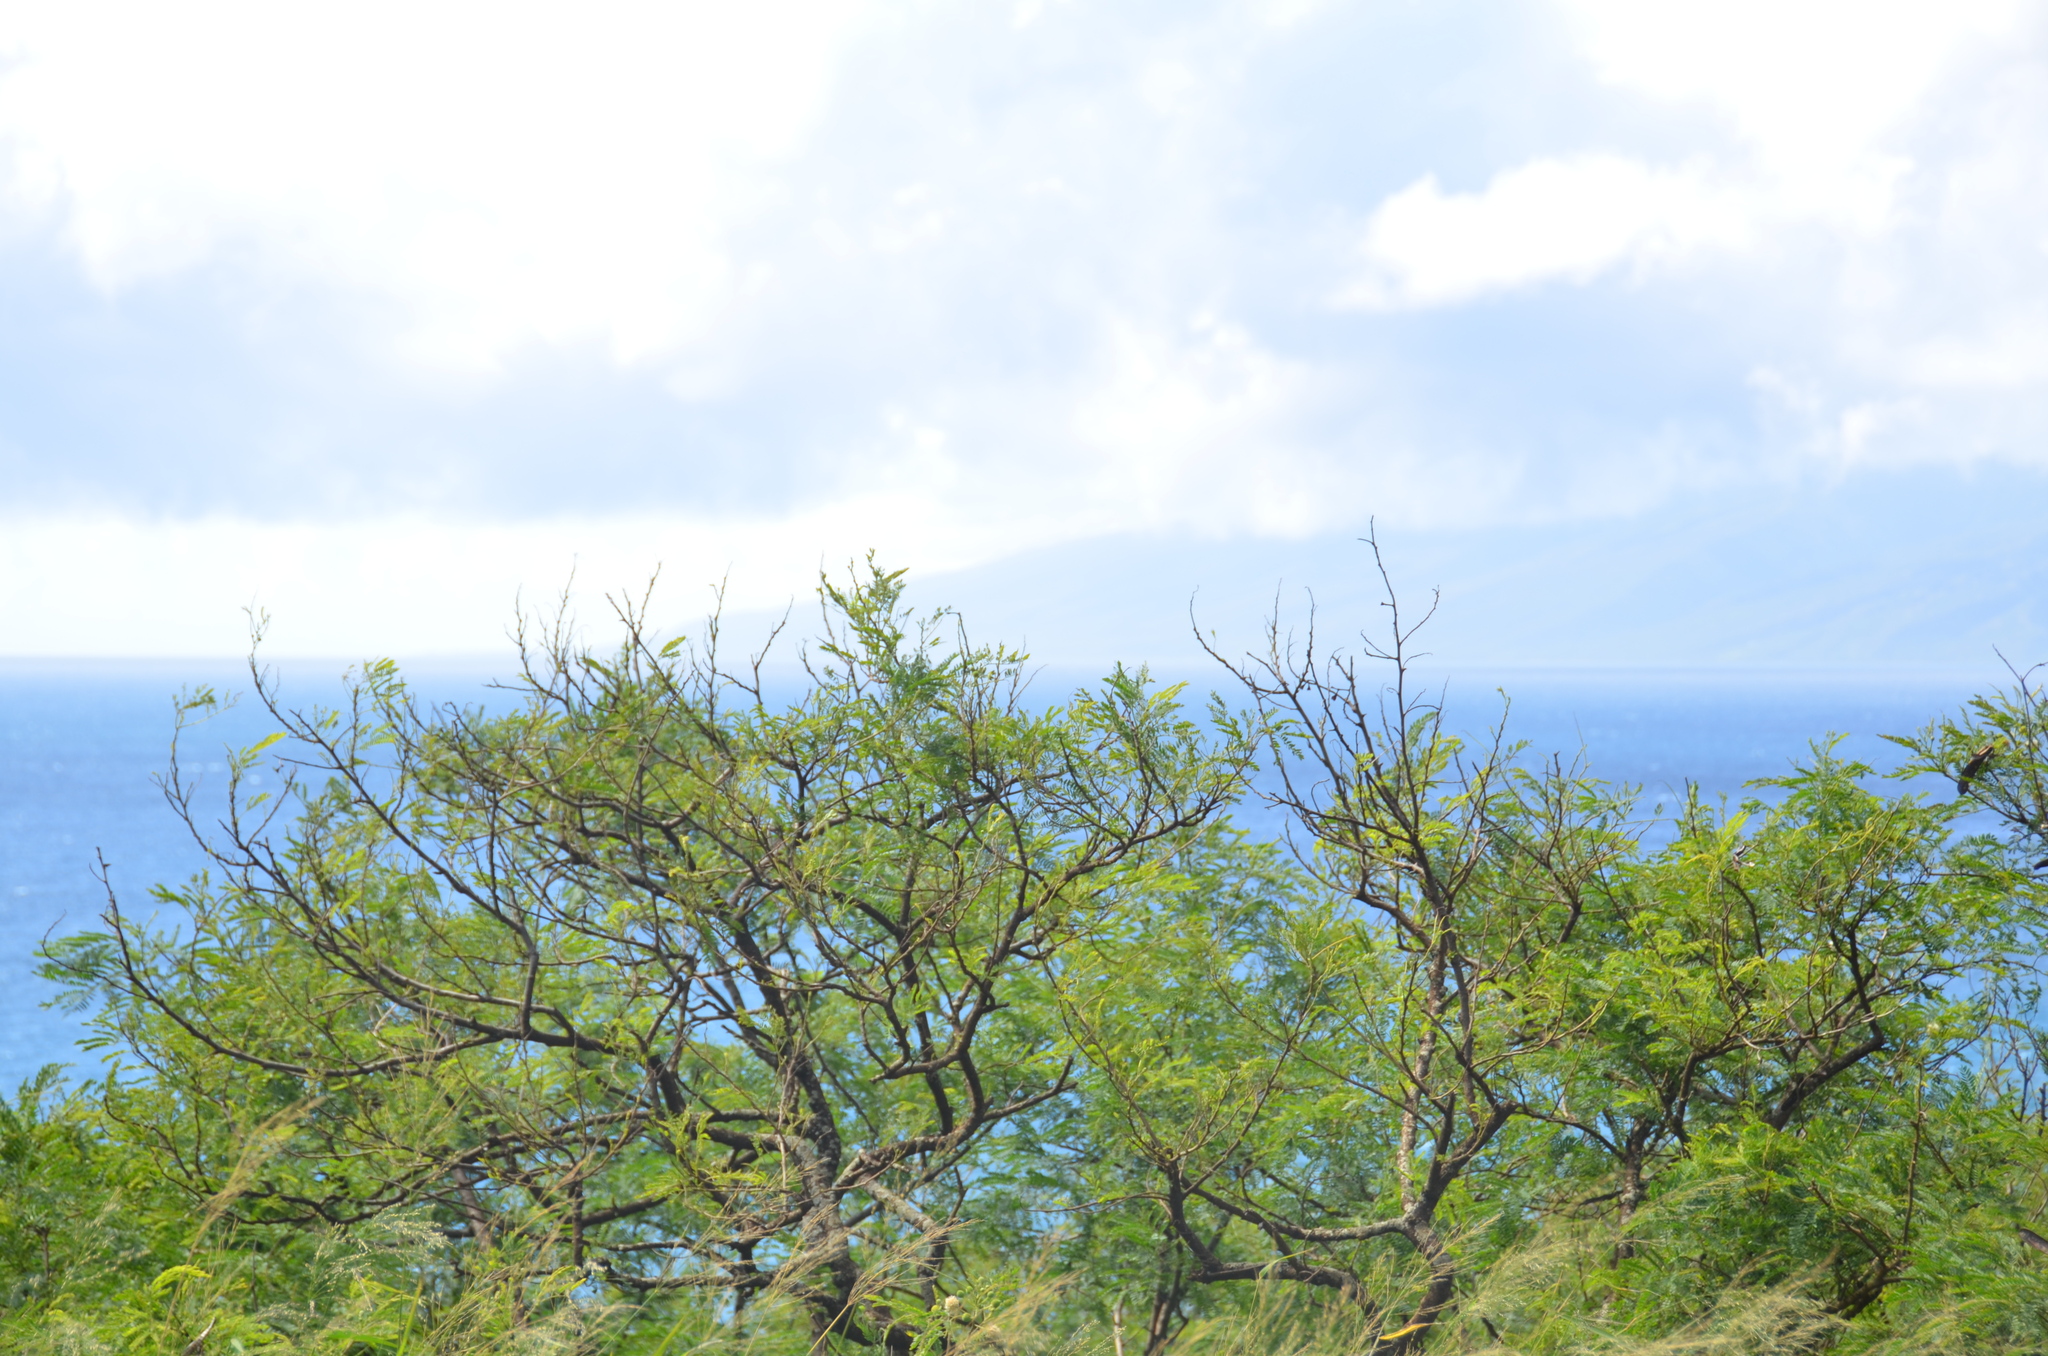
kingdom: Plantae
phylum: Tracheophyta
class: Magnoliopsida
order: Fabales
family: Fabaceae
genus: Prosopis
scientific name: Prosopis pallida
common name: Mesquite
